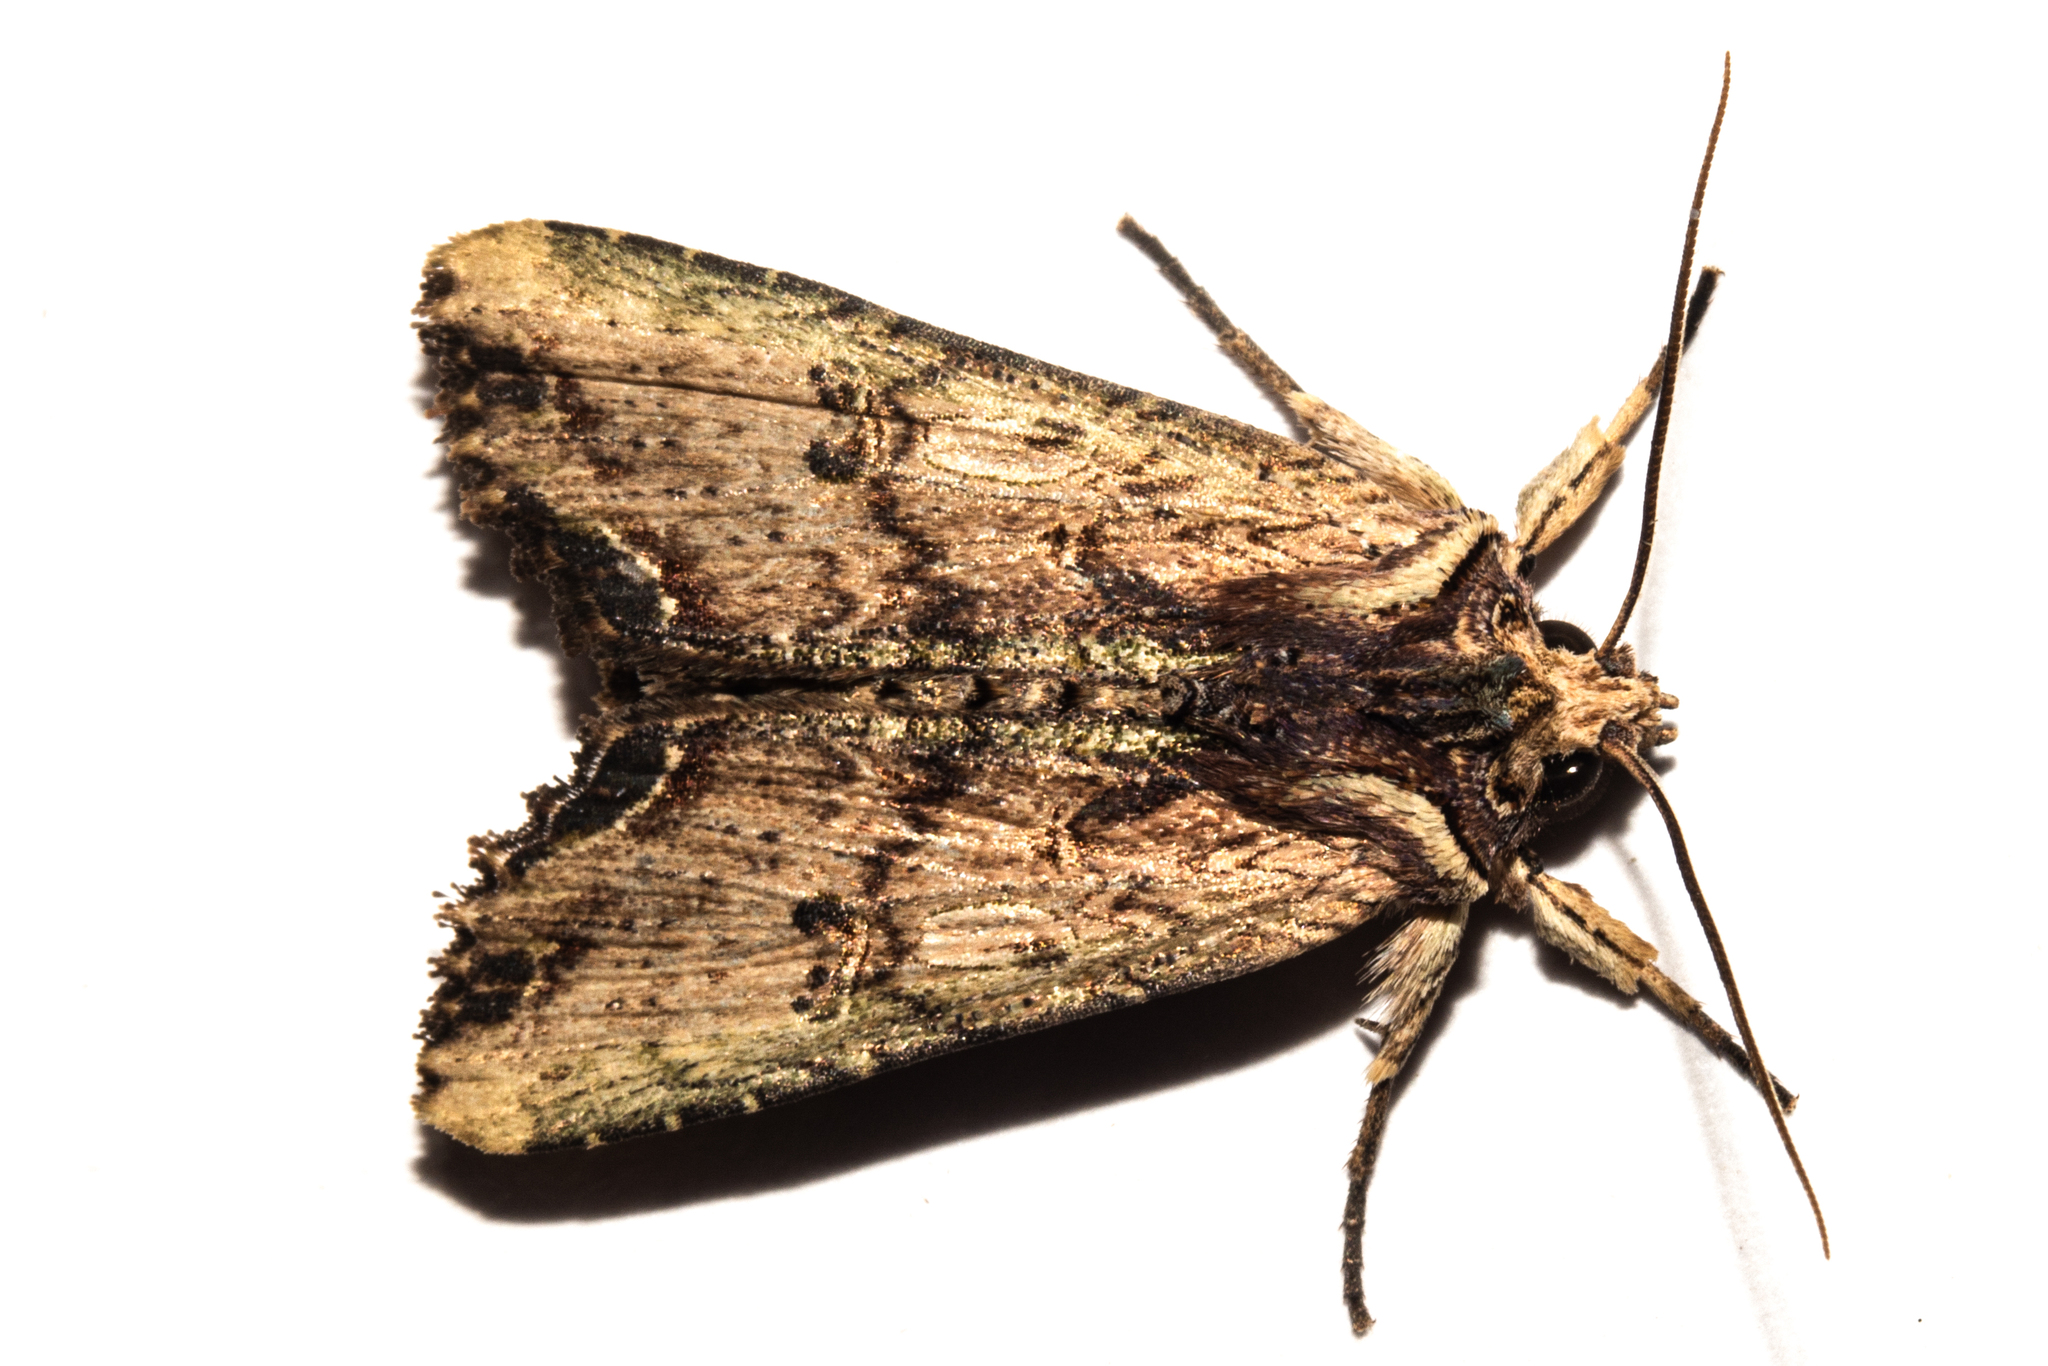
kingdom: Animalia
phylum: Arthropoda
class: Insecta
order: Lepidoptera
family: Noctuidae
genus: Meterana
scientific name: Meterana coeleno
